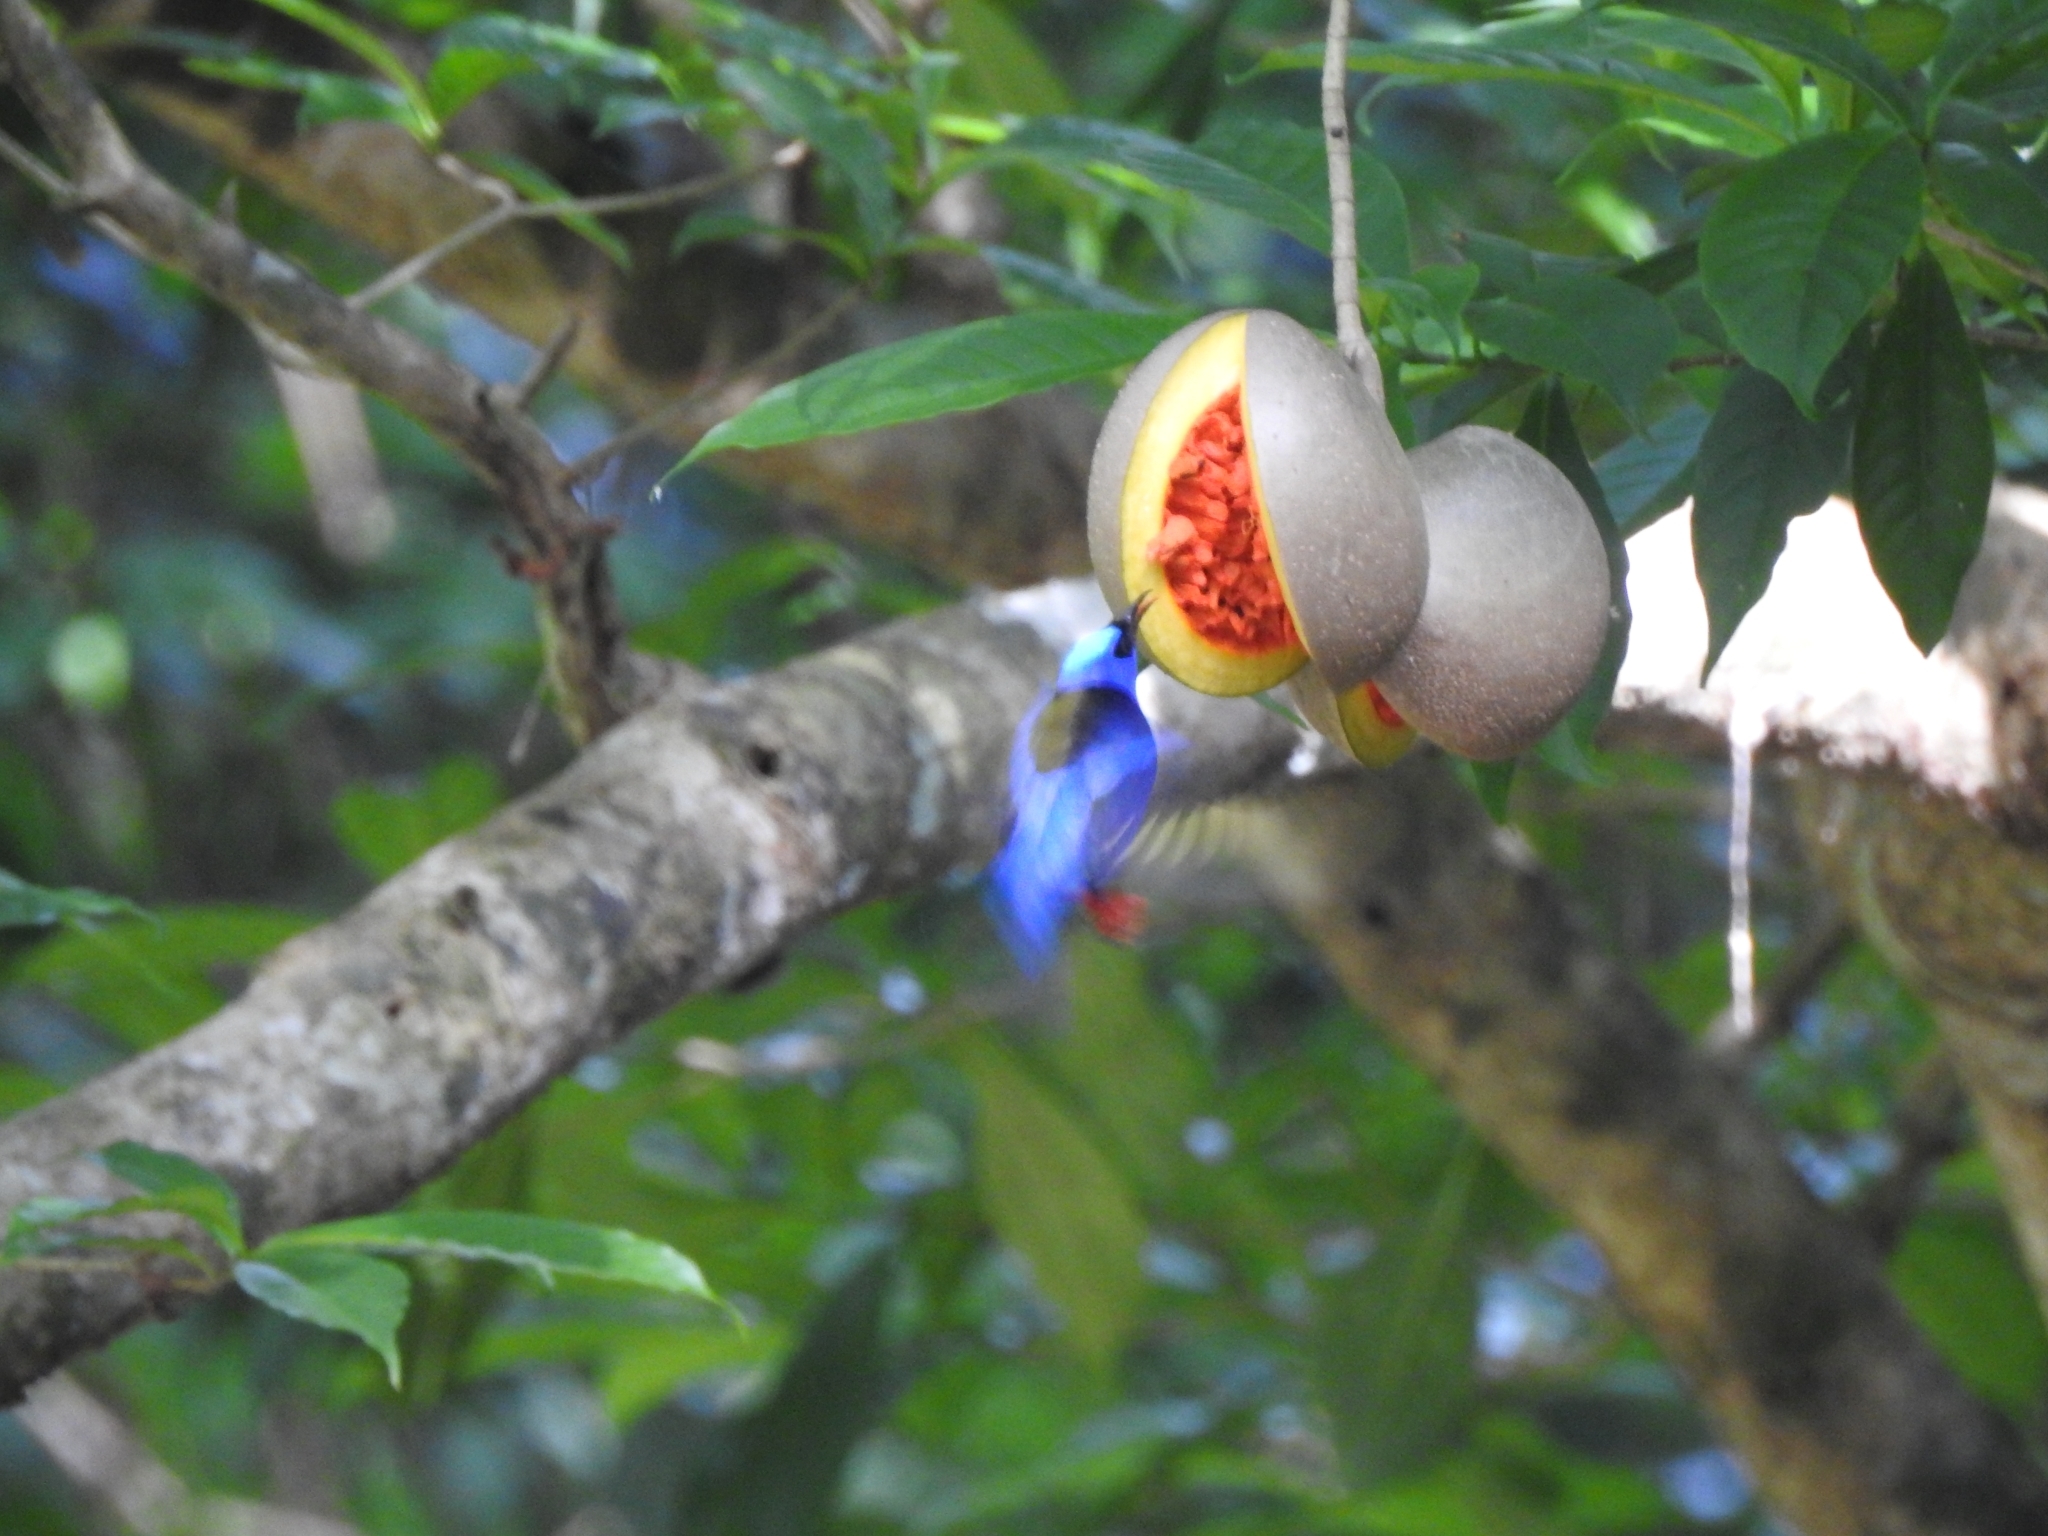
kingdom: Plantae
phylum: Tracheophyta
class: Magnoliopsida
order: Gentianales
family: Apocynaceae
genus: Tabernaemontana
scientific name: Tabernaemontana donnell-smithii
